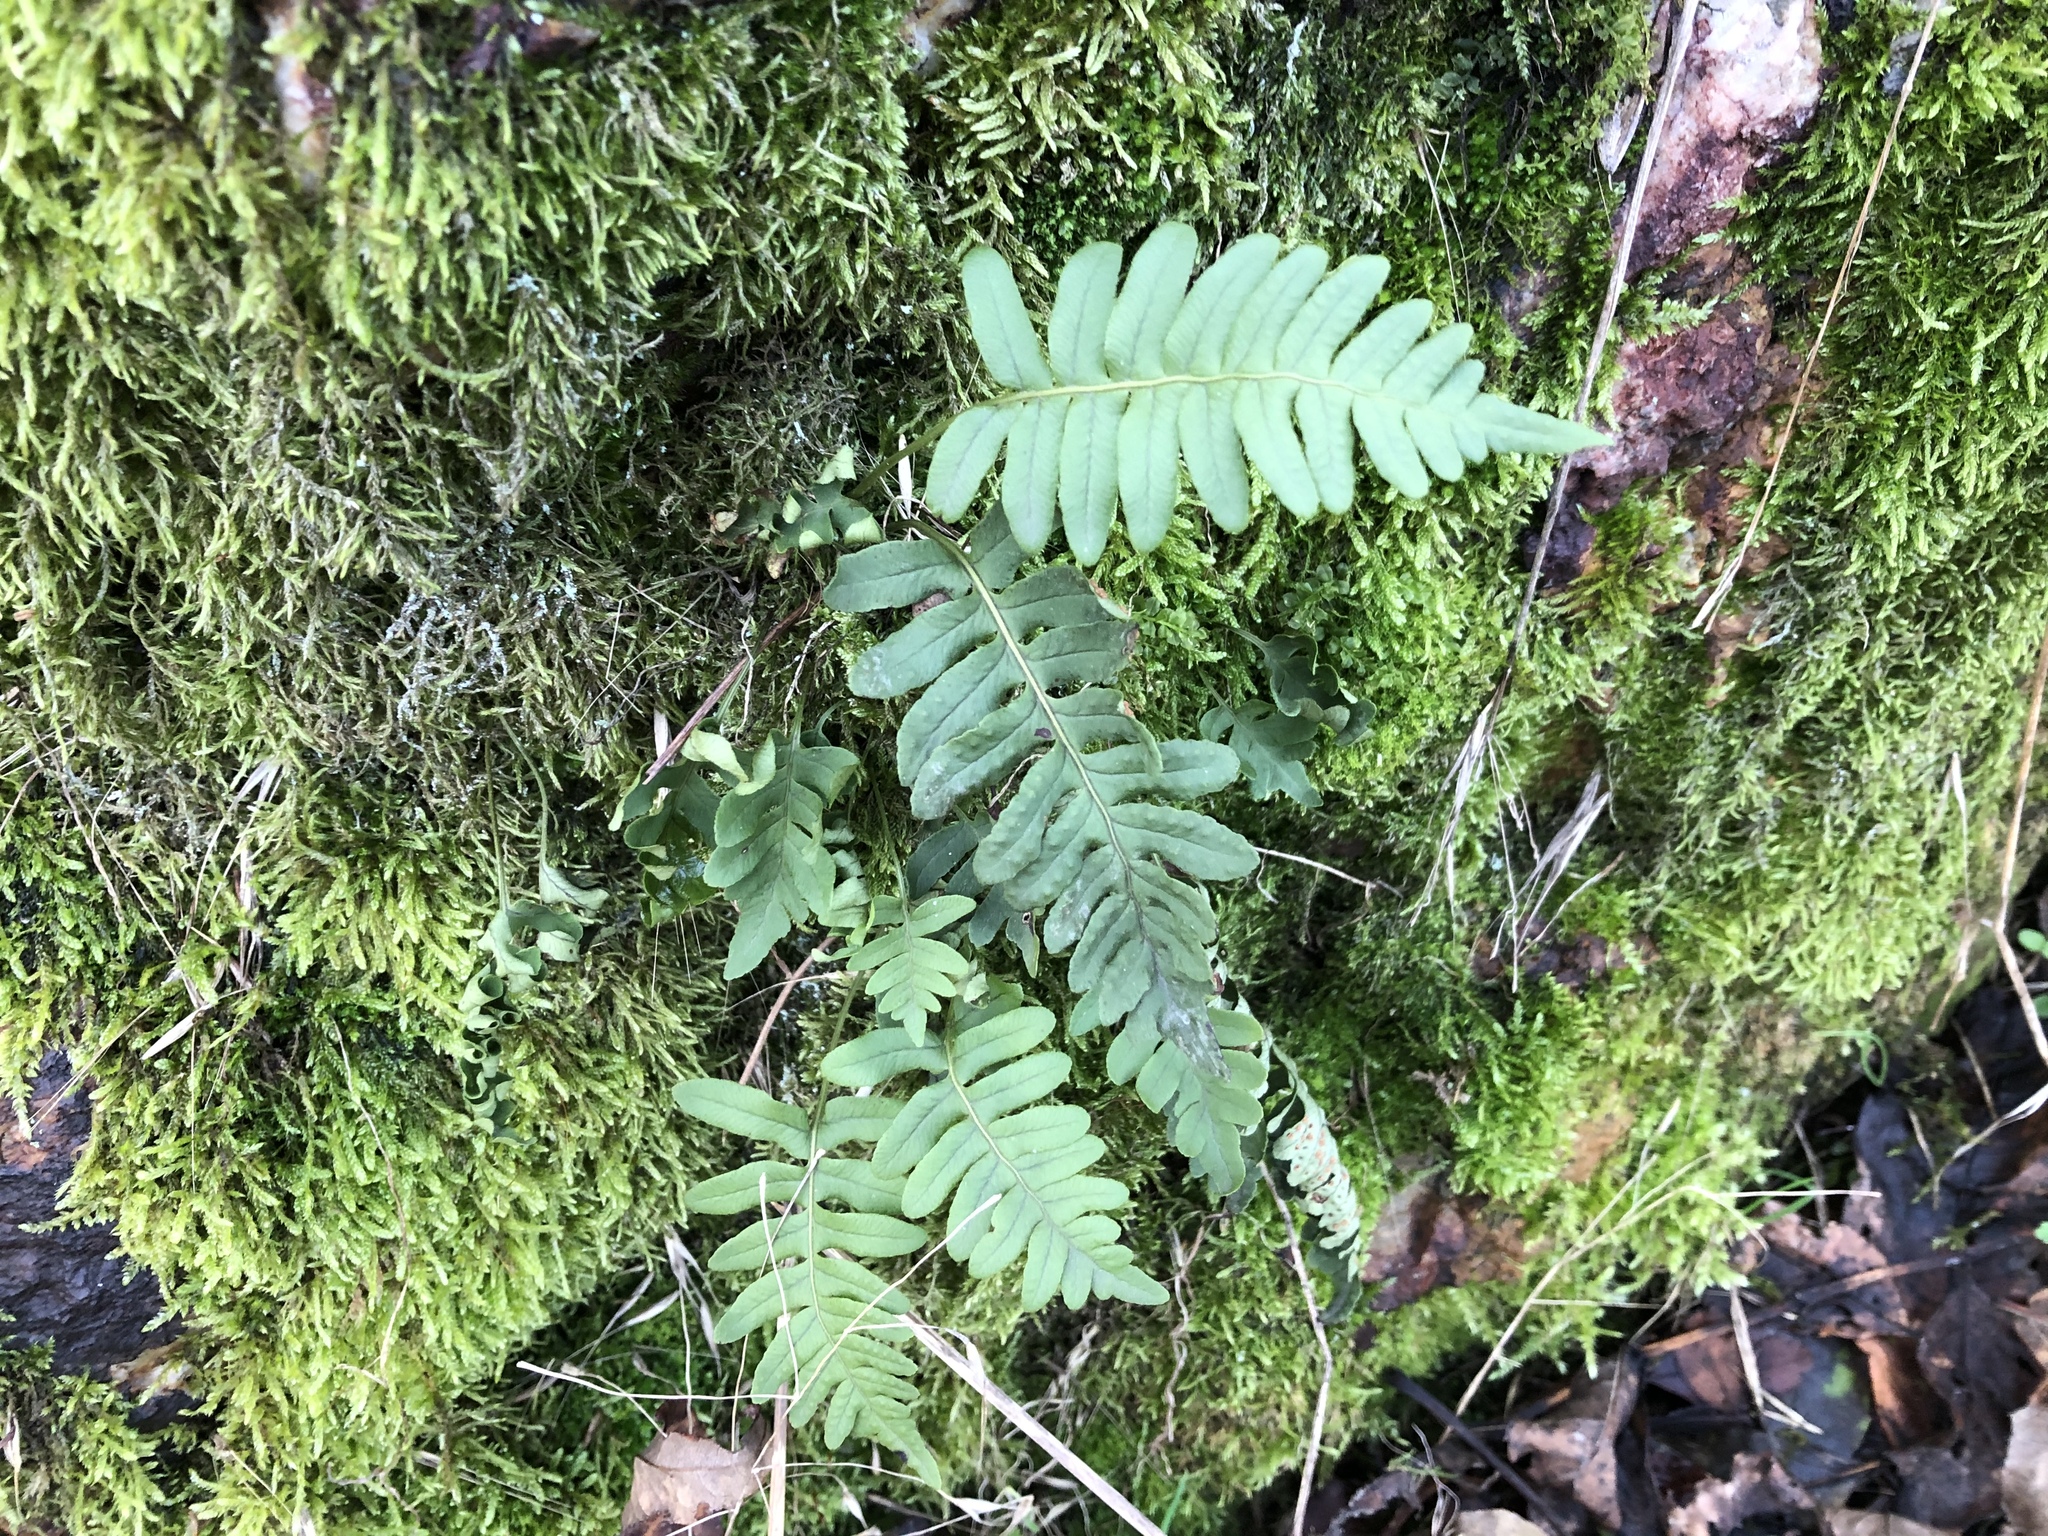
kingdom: Plantae
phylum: Tracheophyta
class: Polypodiopsida
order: Polypodiales
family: Polypodiaceae
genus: Polypodium
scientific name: Polypodium vulgare
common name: Common polypody
